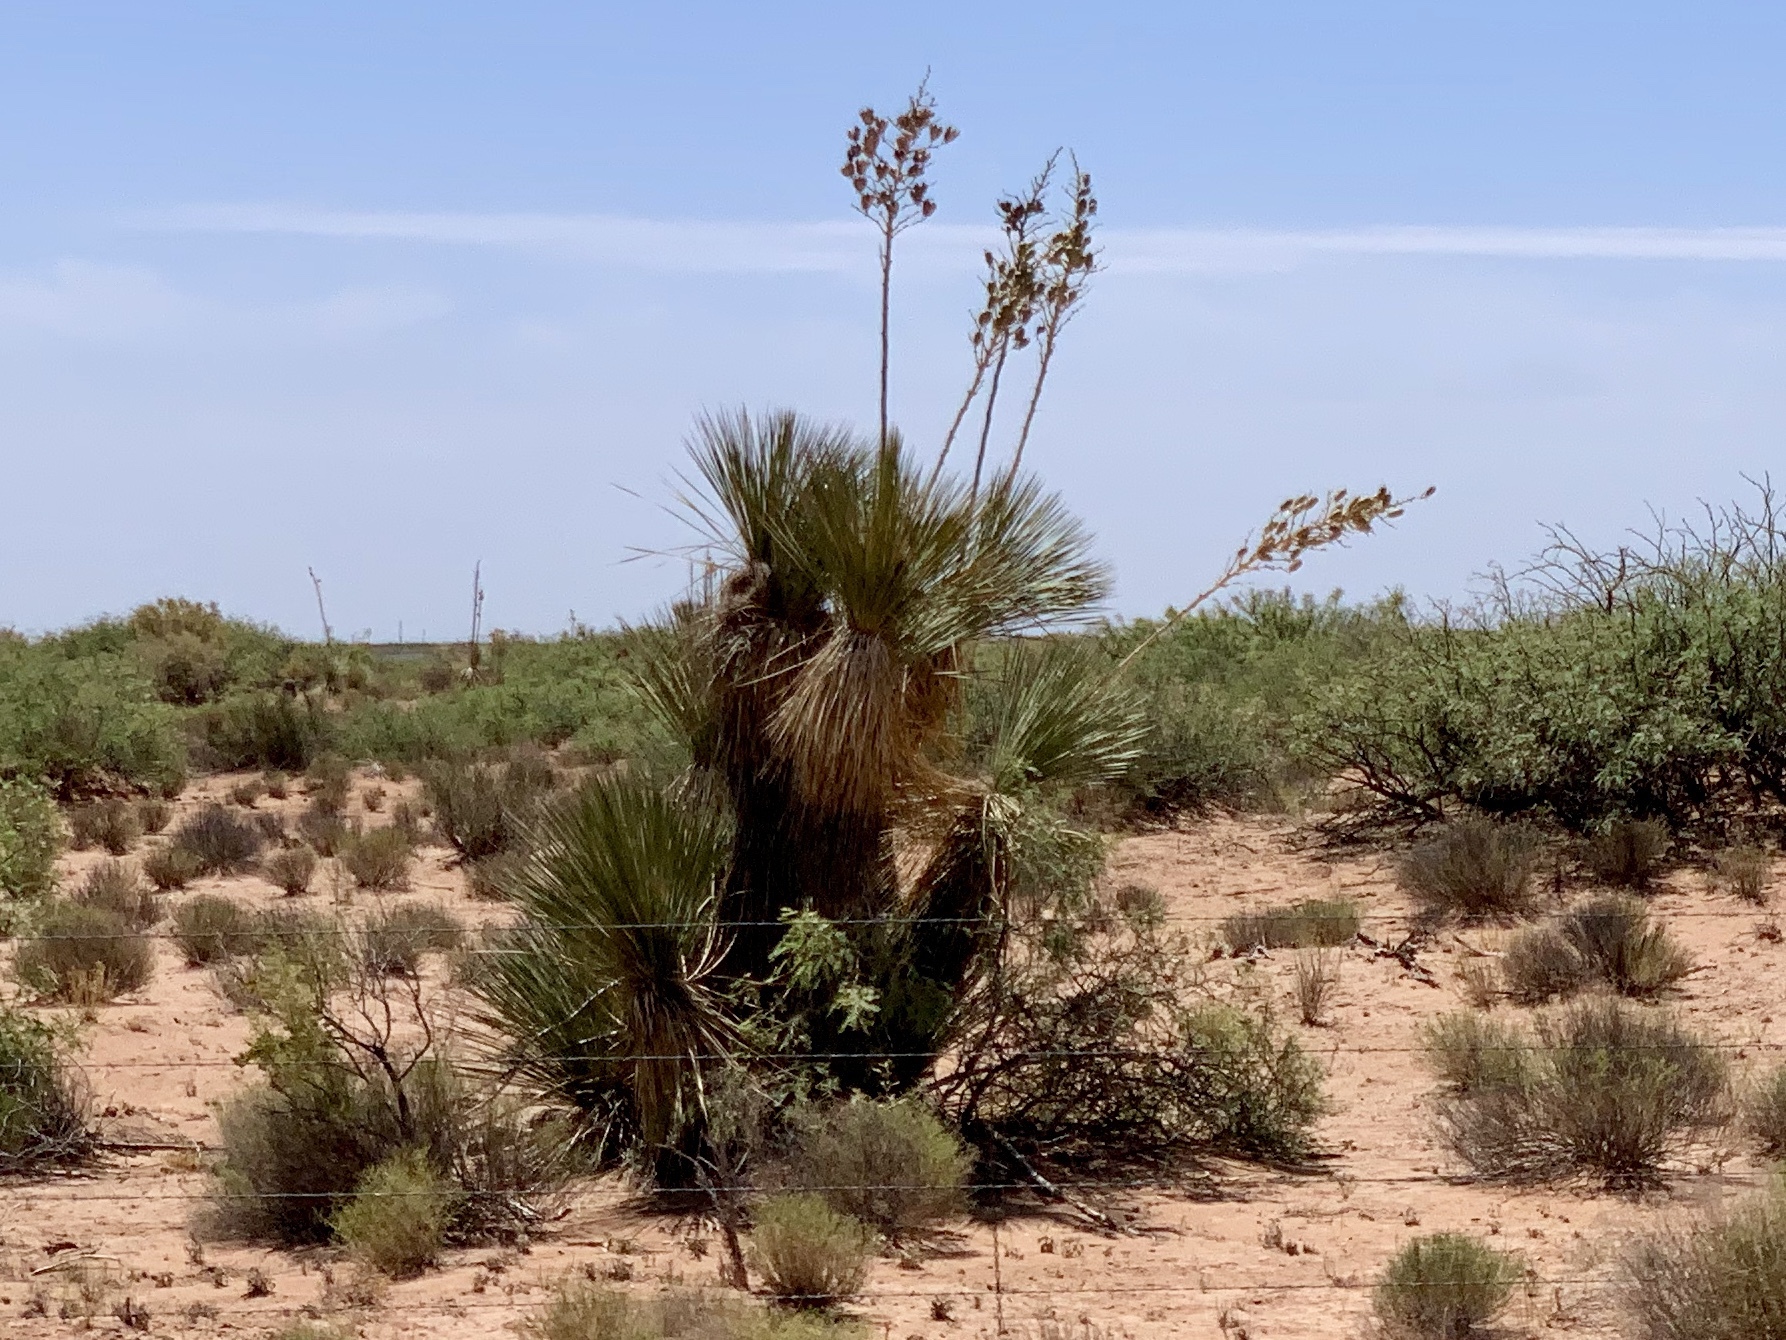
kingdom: Plantae
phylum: Tracheophyta
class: Liliopsida
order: Asparagales
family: Asparagaceae
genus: Yucca
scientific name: Yucca elata
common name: Palmella
